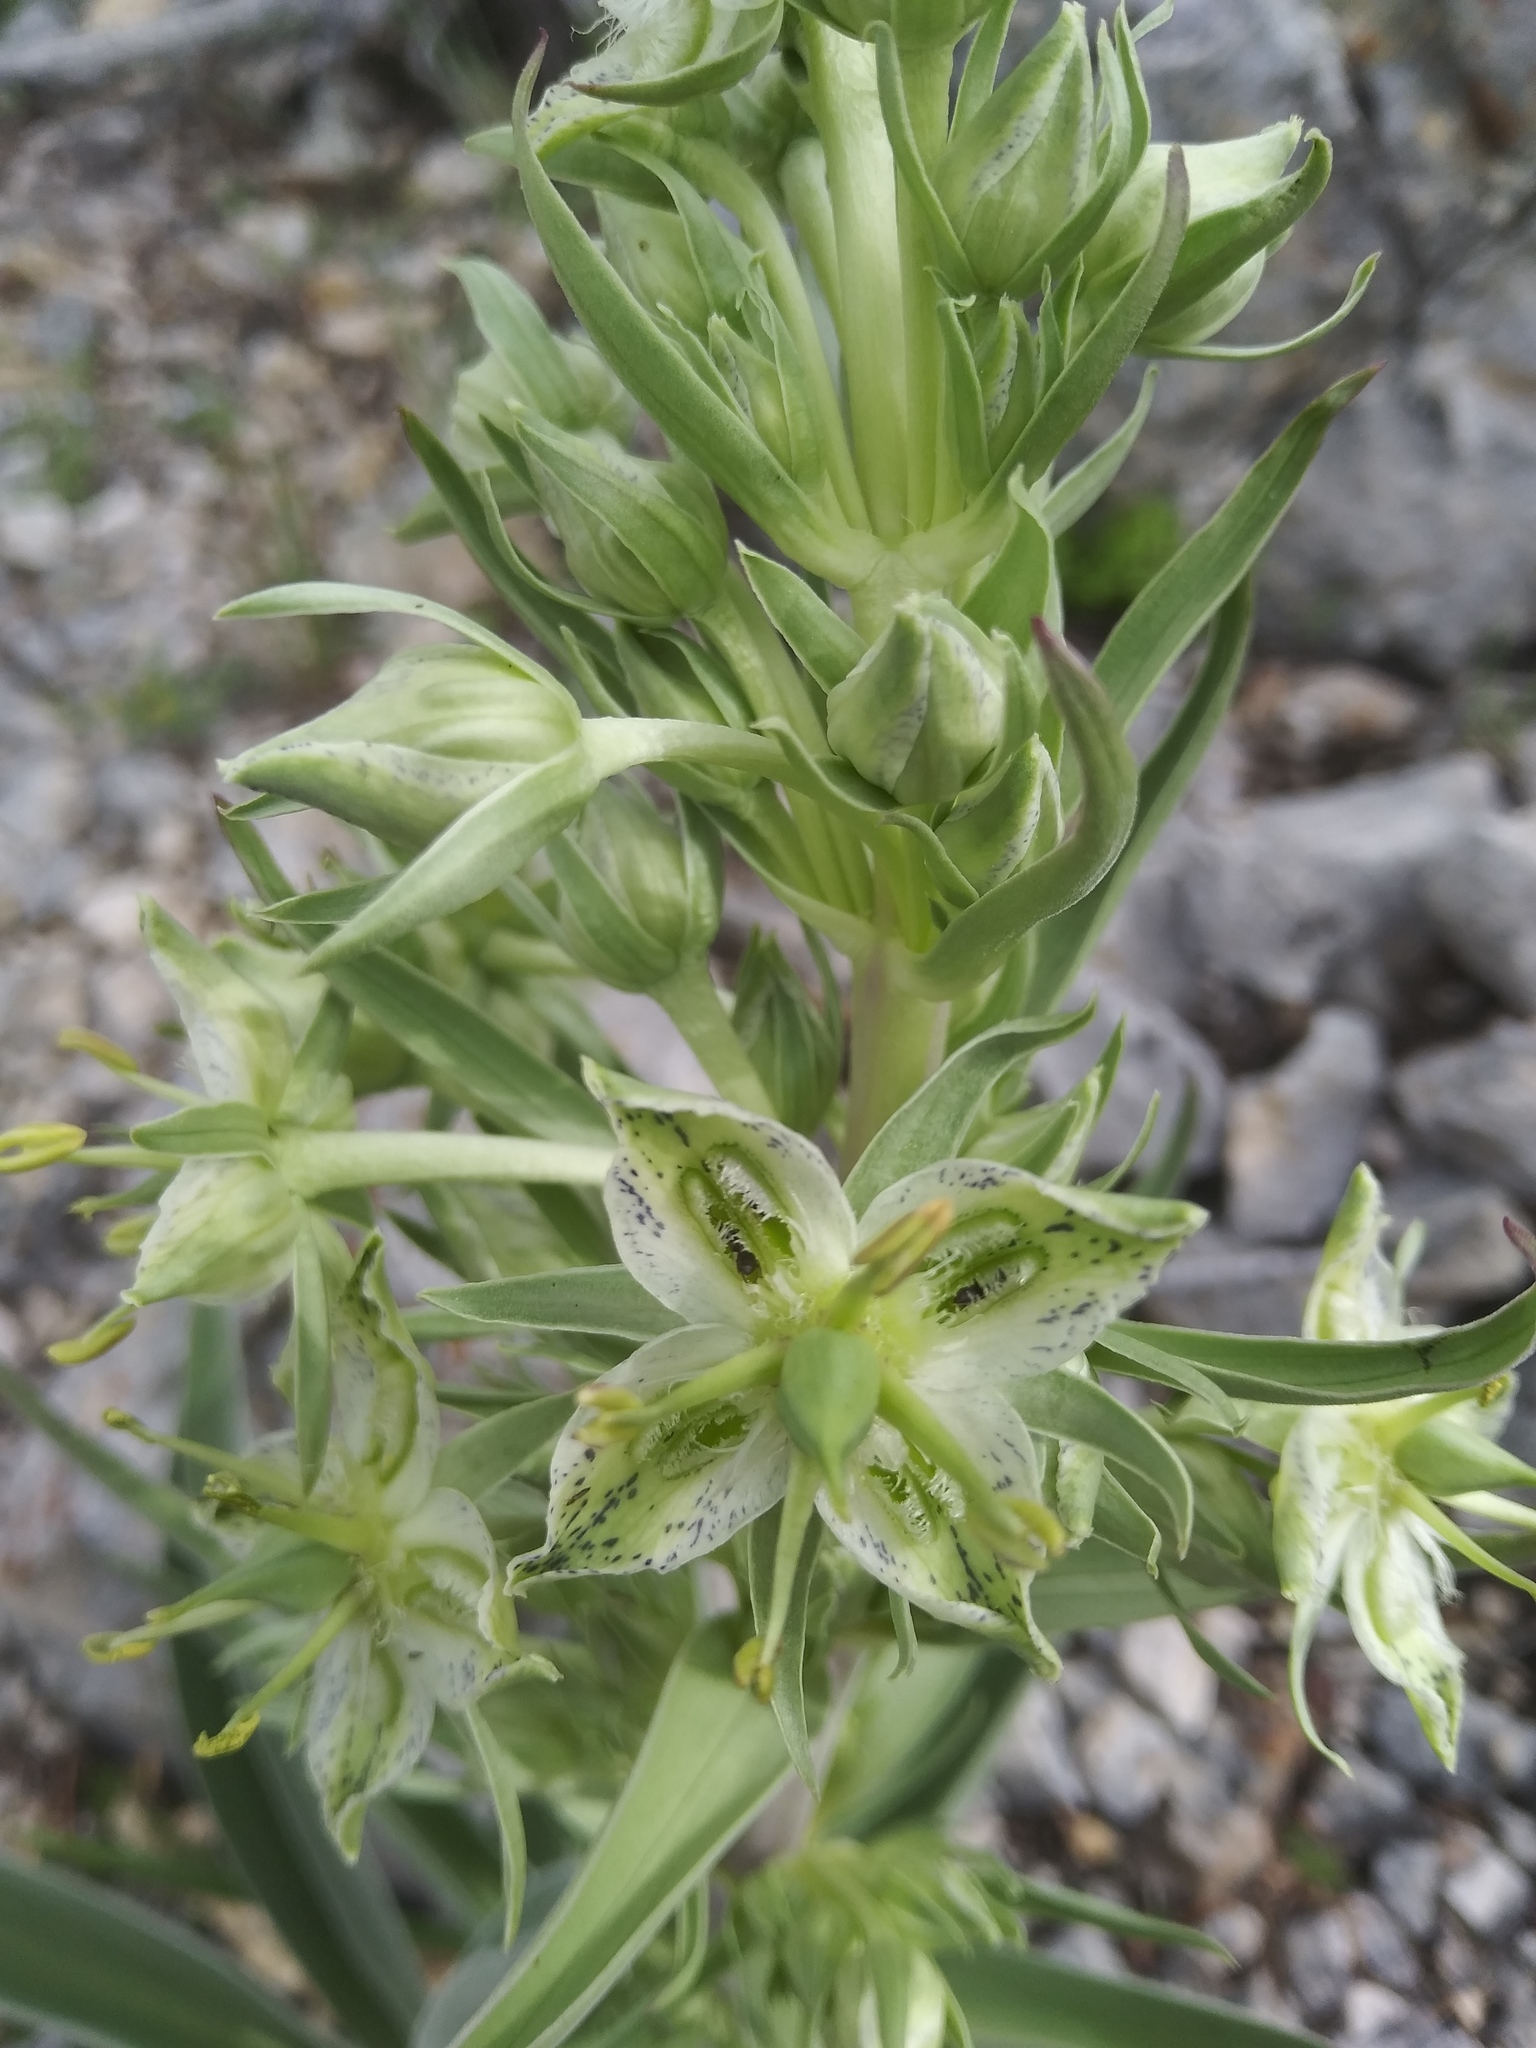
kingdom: Plantae
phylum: Tracheophyta
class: Magnoliopsida
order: Gentianales
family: Gentianaceae
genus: Frasera
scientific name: Frasera speciosa
